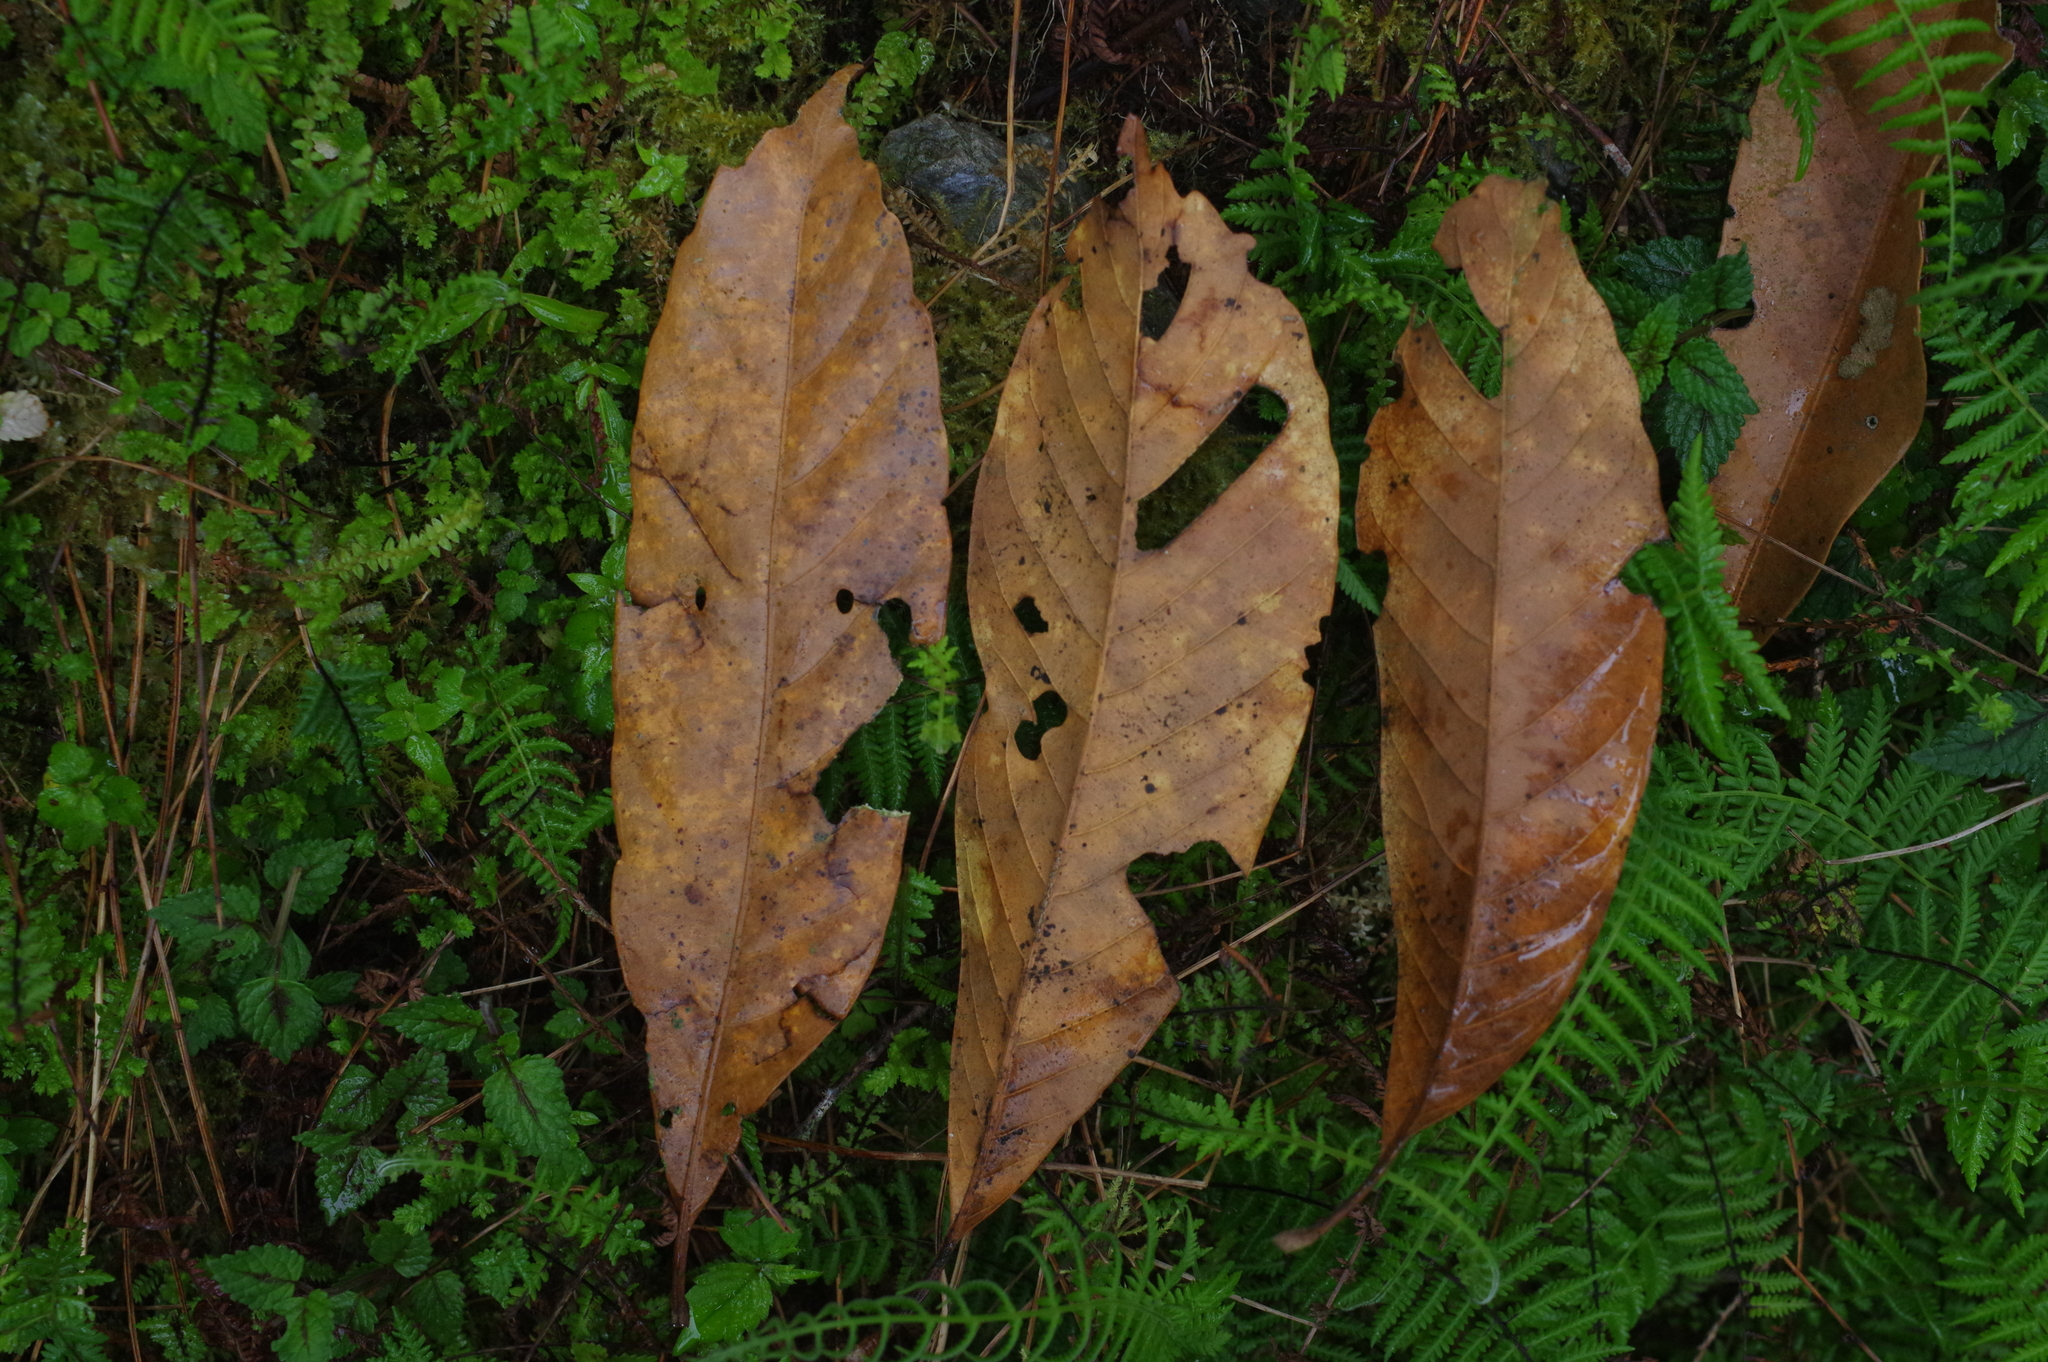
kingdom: Plantae
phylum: Tracheophyta
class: Magnoliopsida
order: Fagales
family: Fagaceae
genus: Lithocarpus
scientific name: Lithocarpus kawakamii
